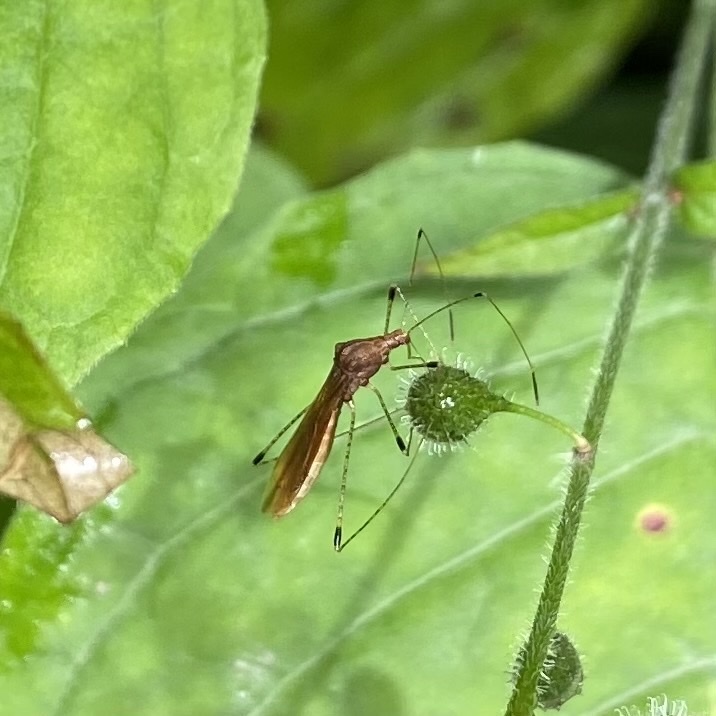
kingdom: Animalia
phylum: Arthropoda
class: Insecta
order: Hemiptera
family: Berytidae
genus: Metatropis
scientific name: Metatropis rufescens
